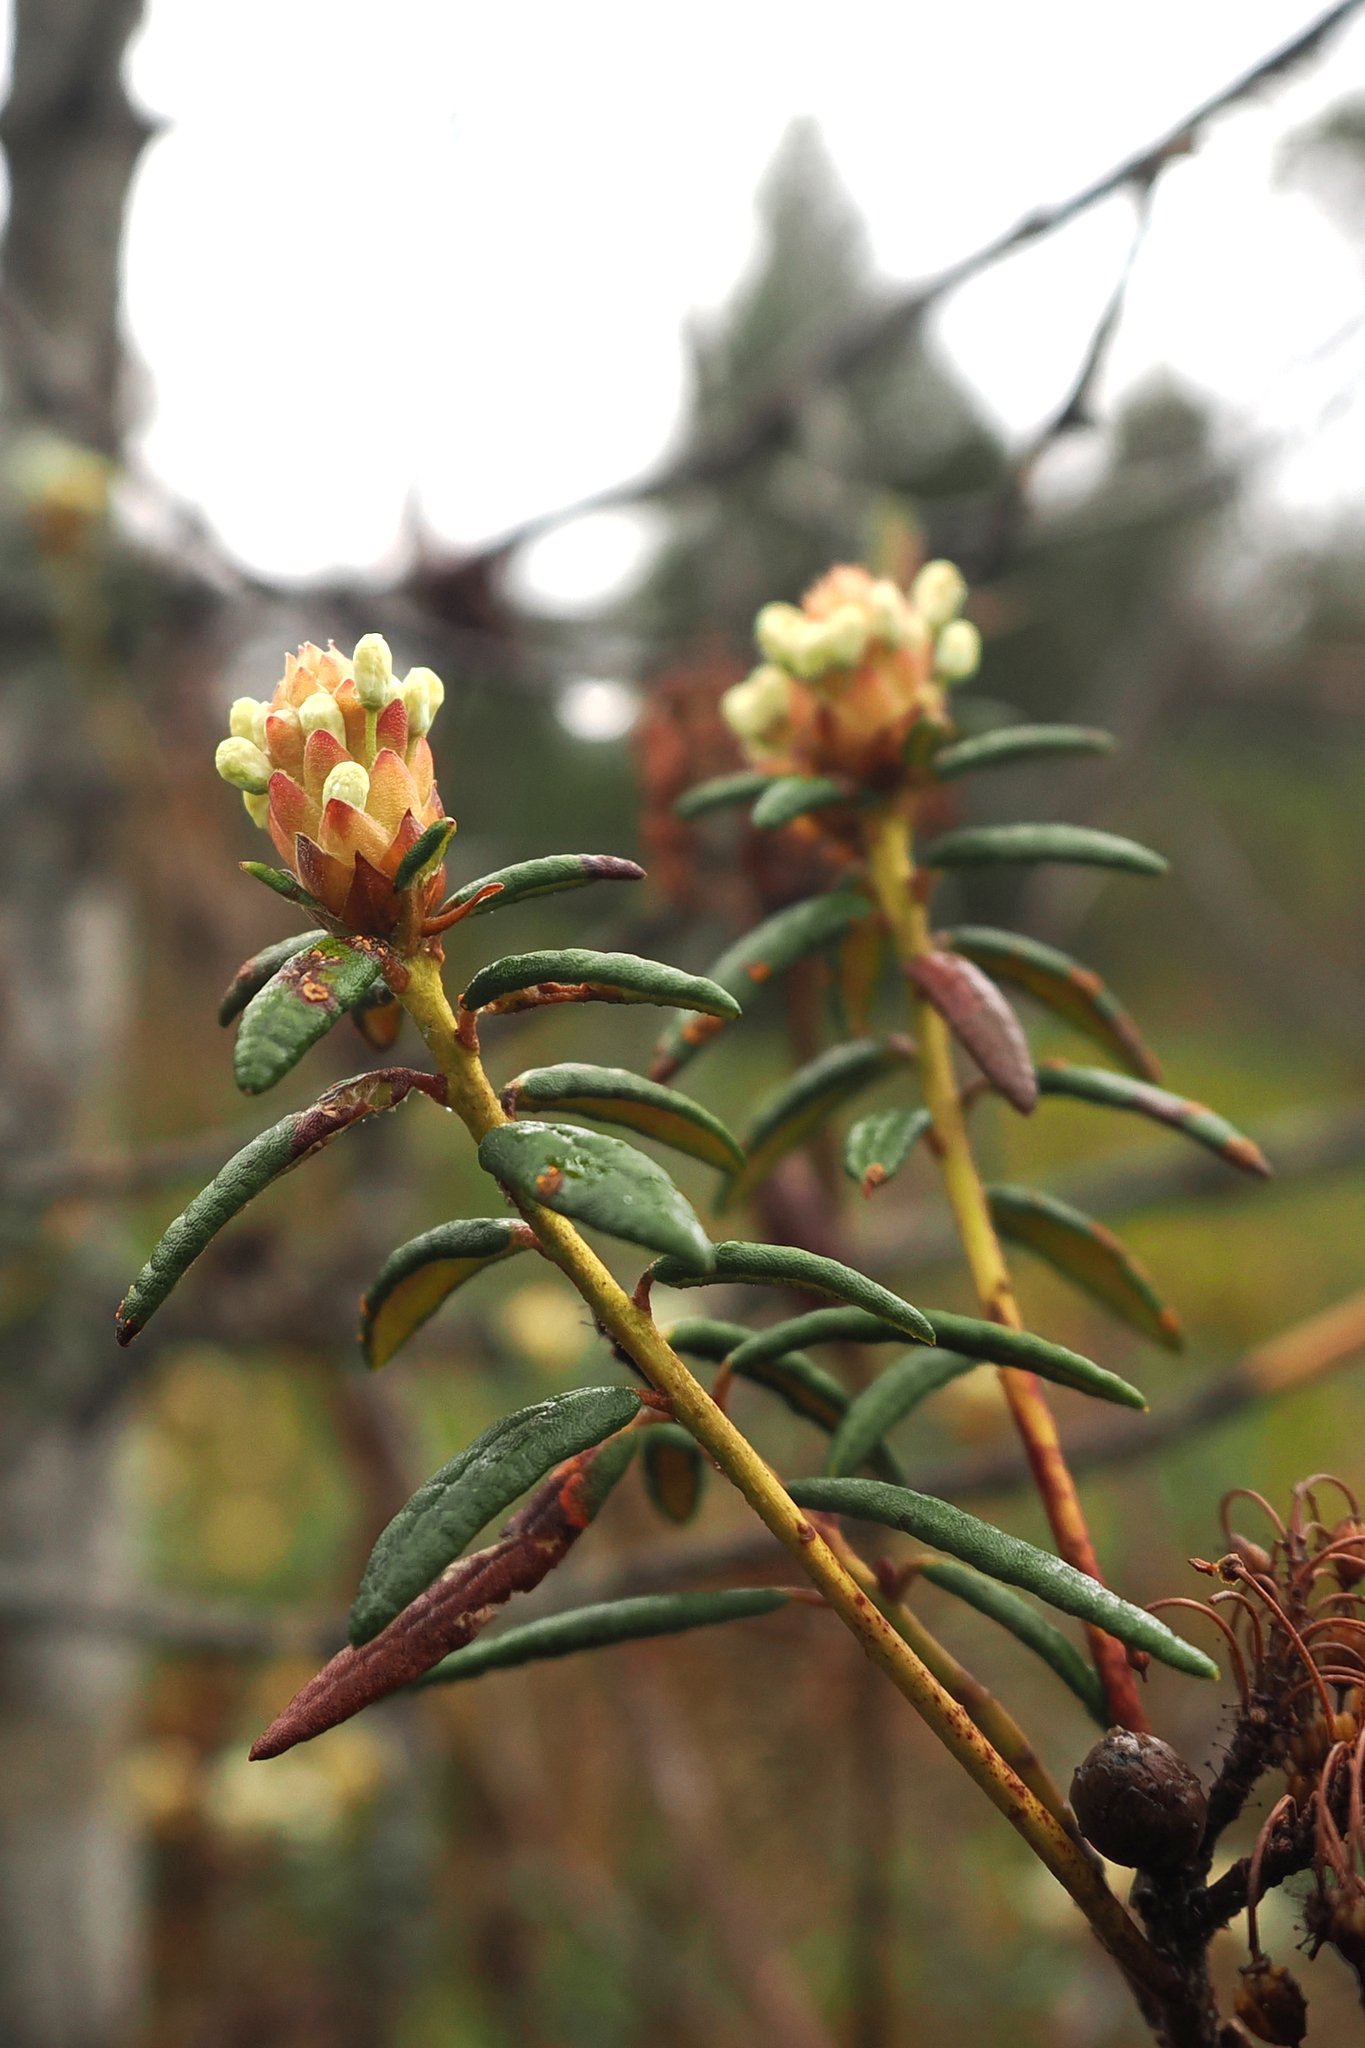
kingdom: Plantae
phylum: Tracheophyta
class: Magnoliopsida
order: Ericales
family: Ericaceae
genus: Rhododendron
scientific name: Rhododendron groenlandicum
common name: Bog labrador tea
